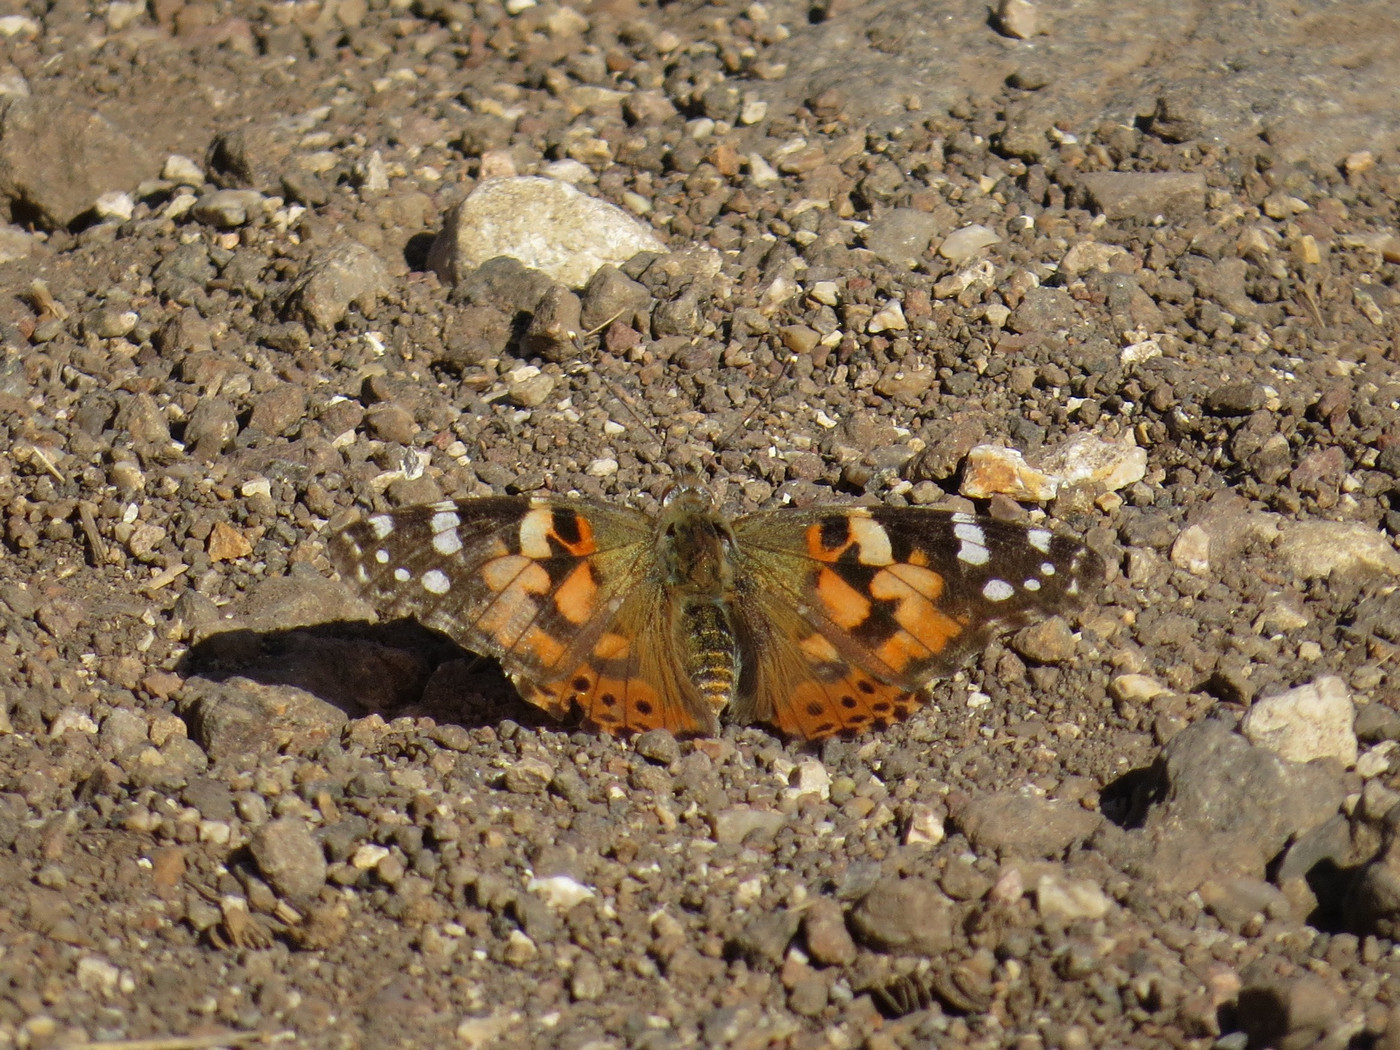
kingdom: Animalia
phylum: Arthropoda
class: Insecta
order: Lepidoptera
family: Nymphalidae
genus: Vanessa
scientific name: Vanessa cardui
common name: Painted lady
